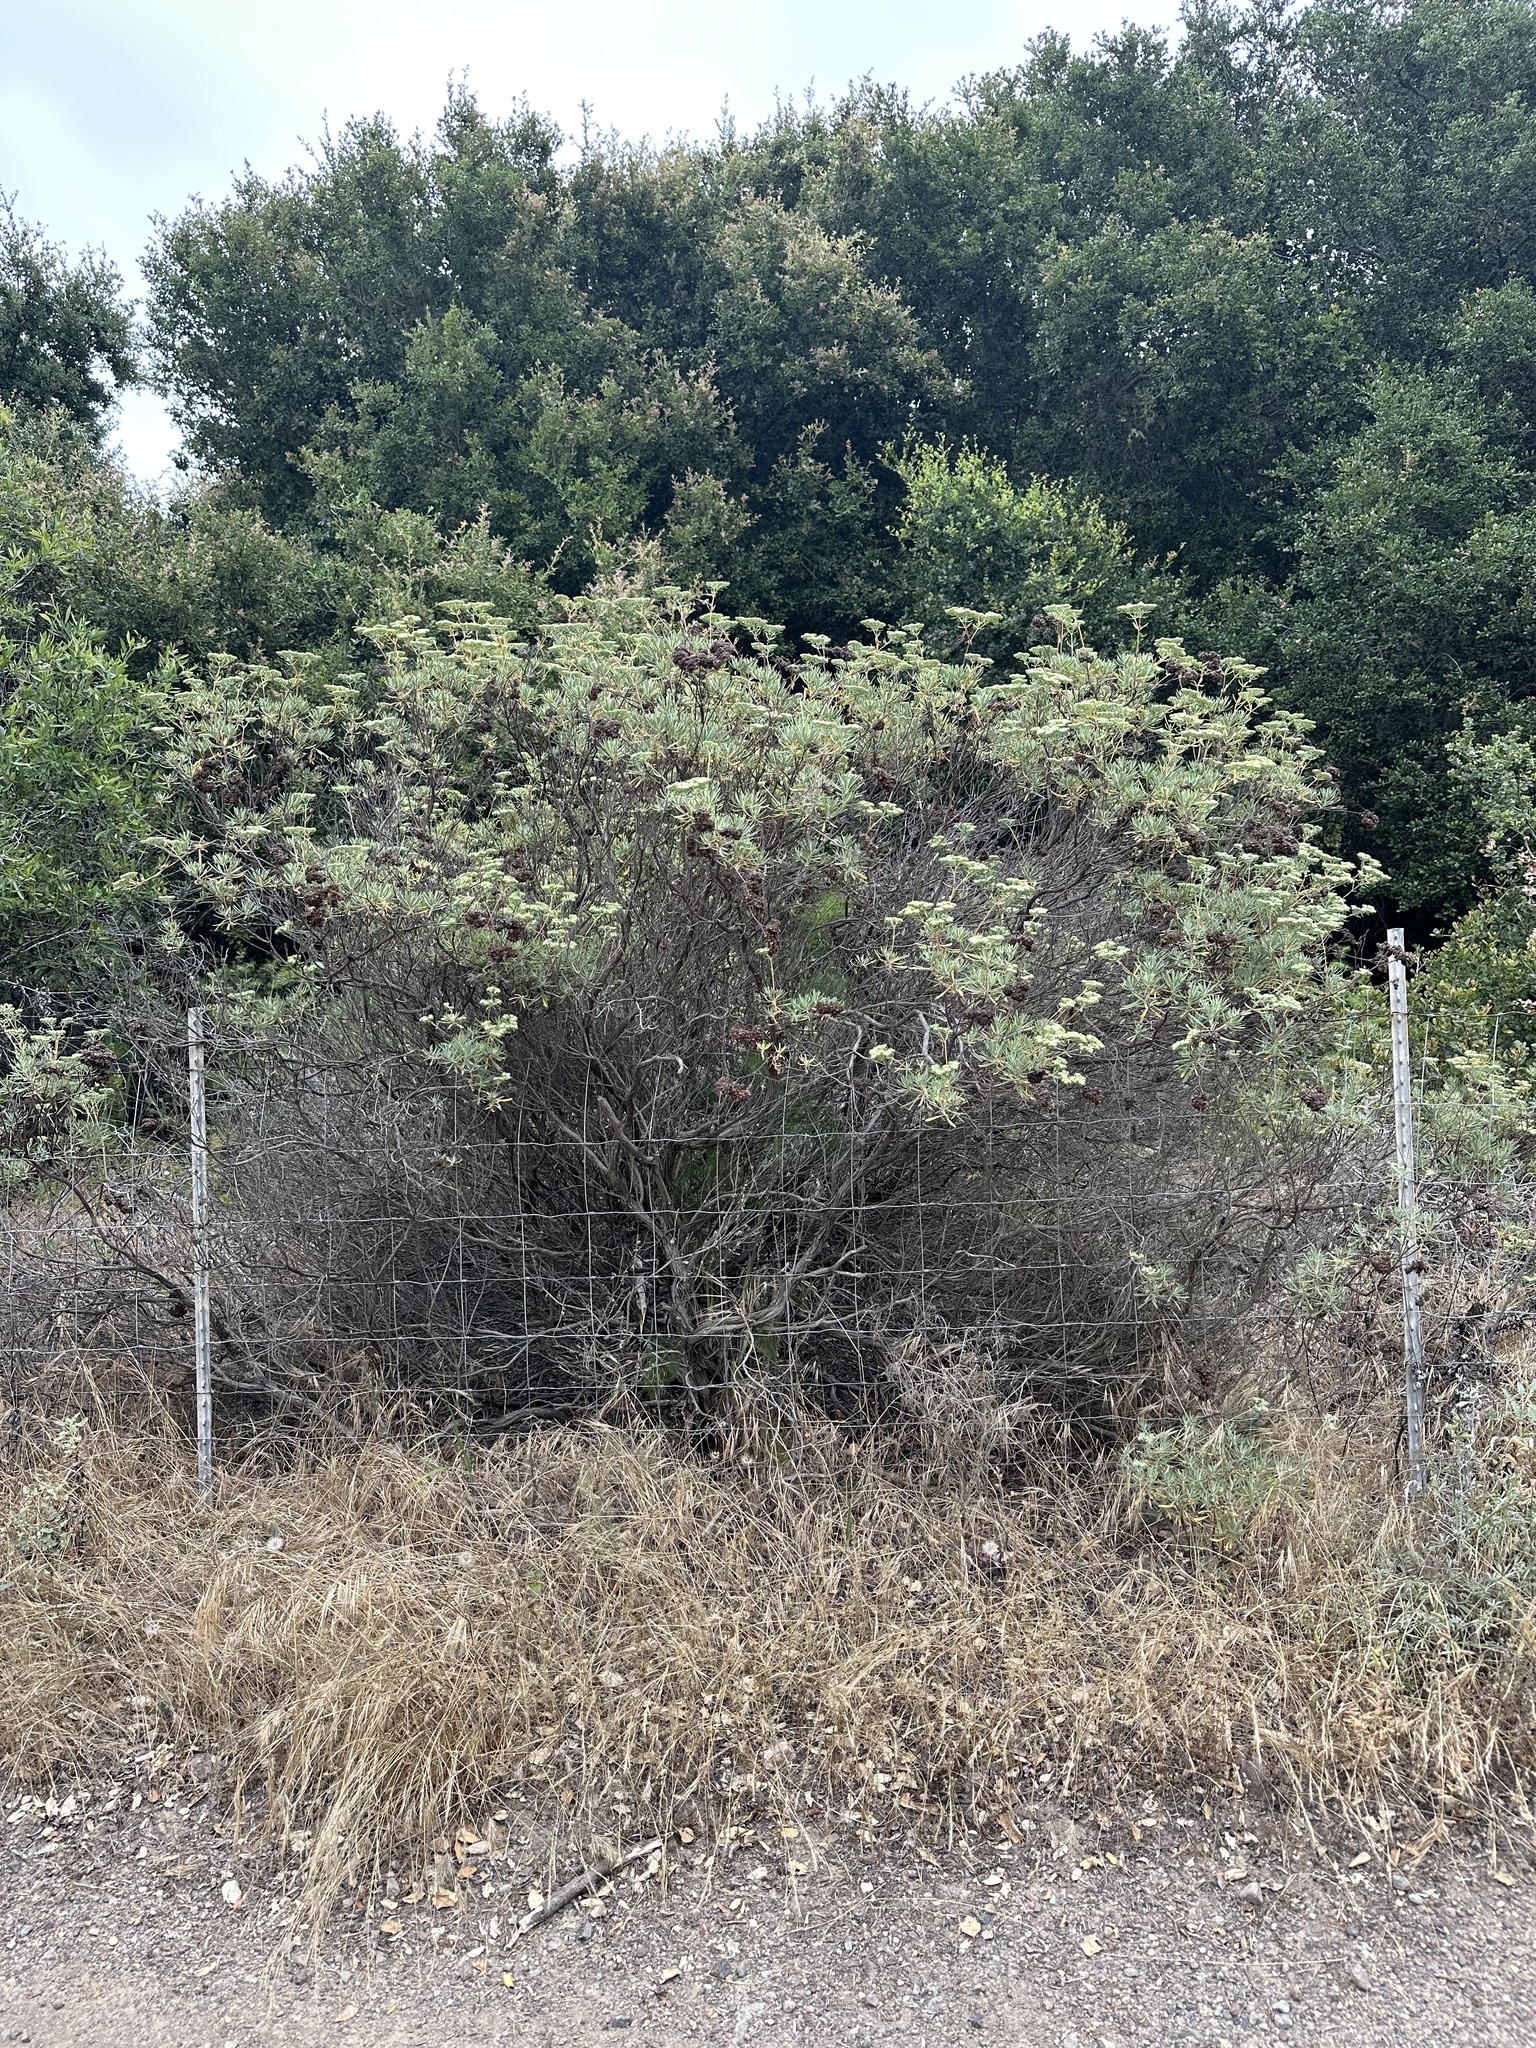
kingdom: Plantae
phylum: Tracheophyta
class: Magnoliopsida
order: Caryophyllales
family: Polygonaceae
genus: Eriogonum
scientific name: Eriogonum arborescens
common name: Island buckwheat
